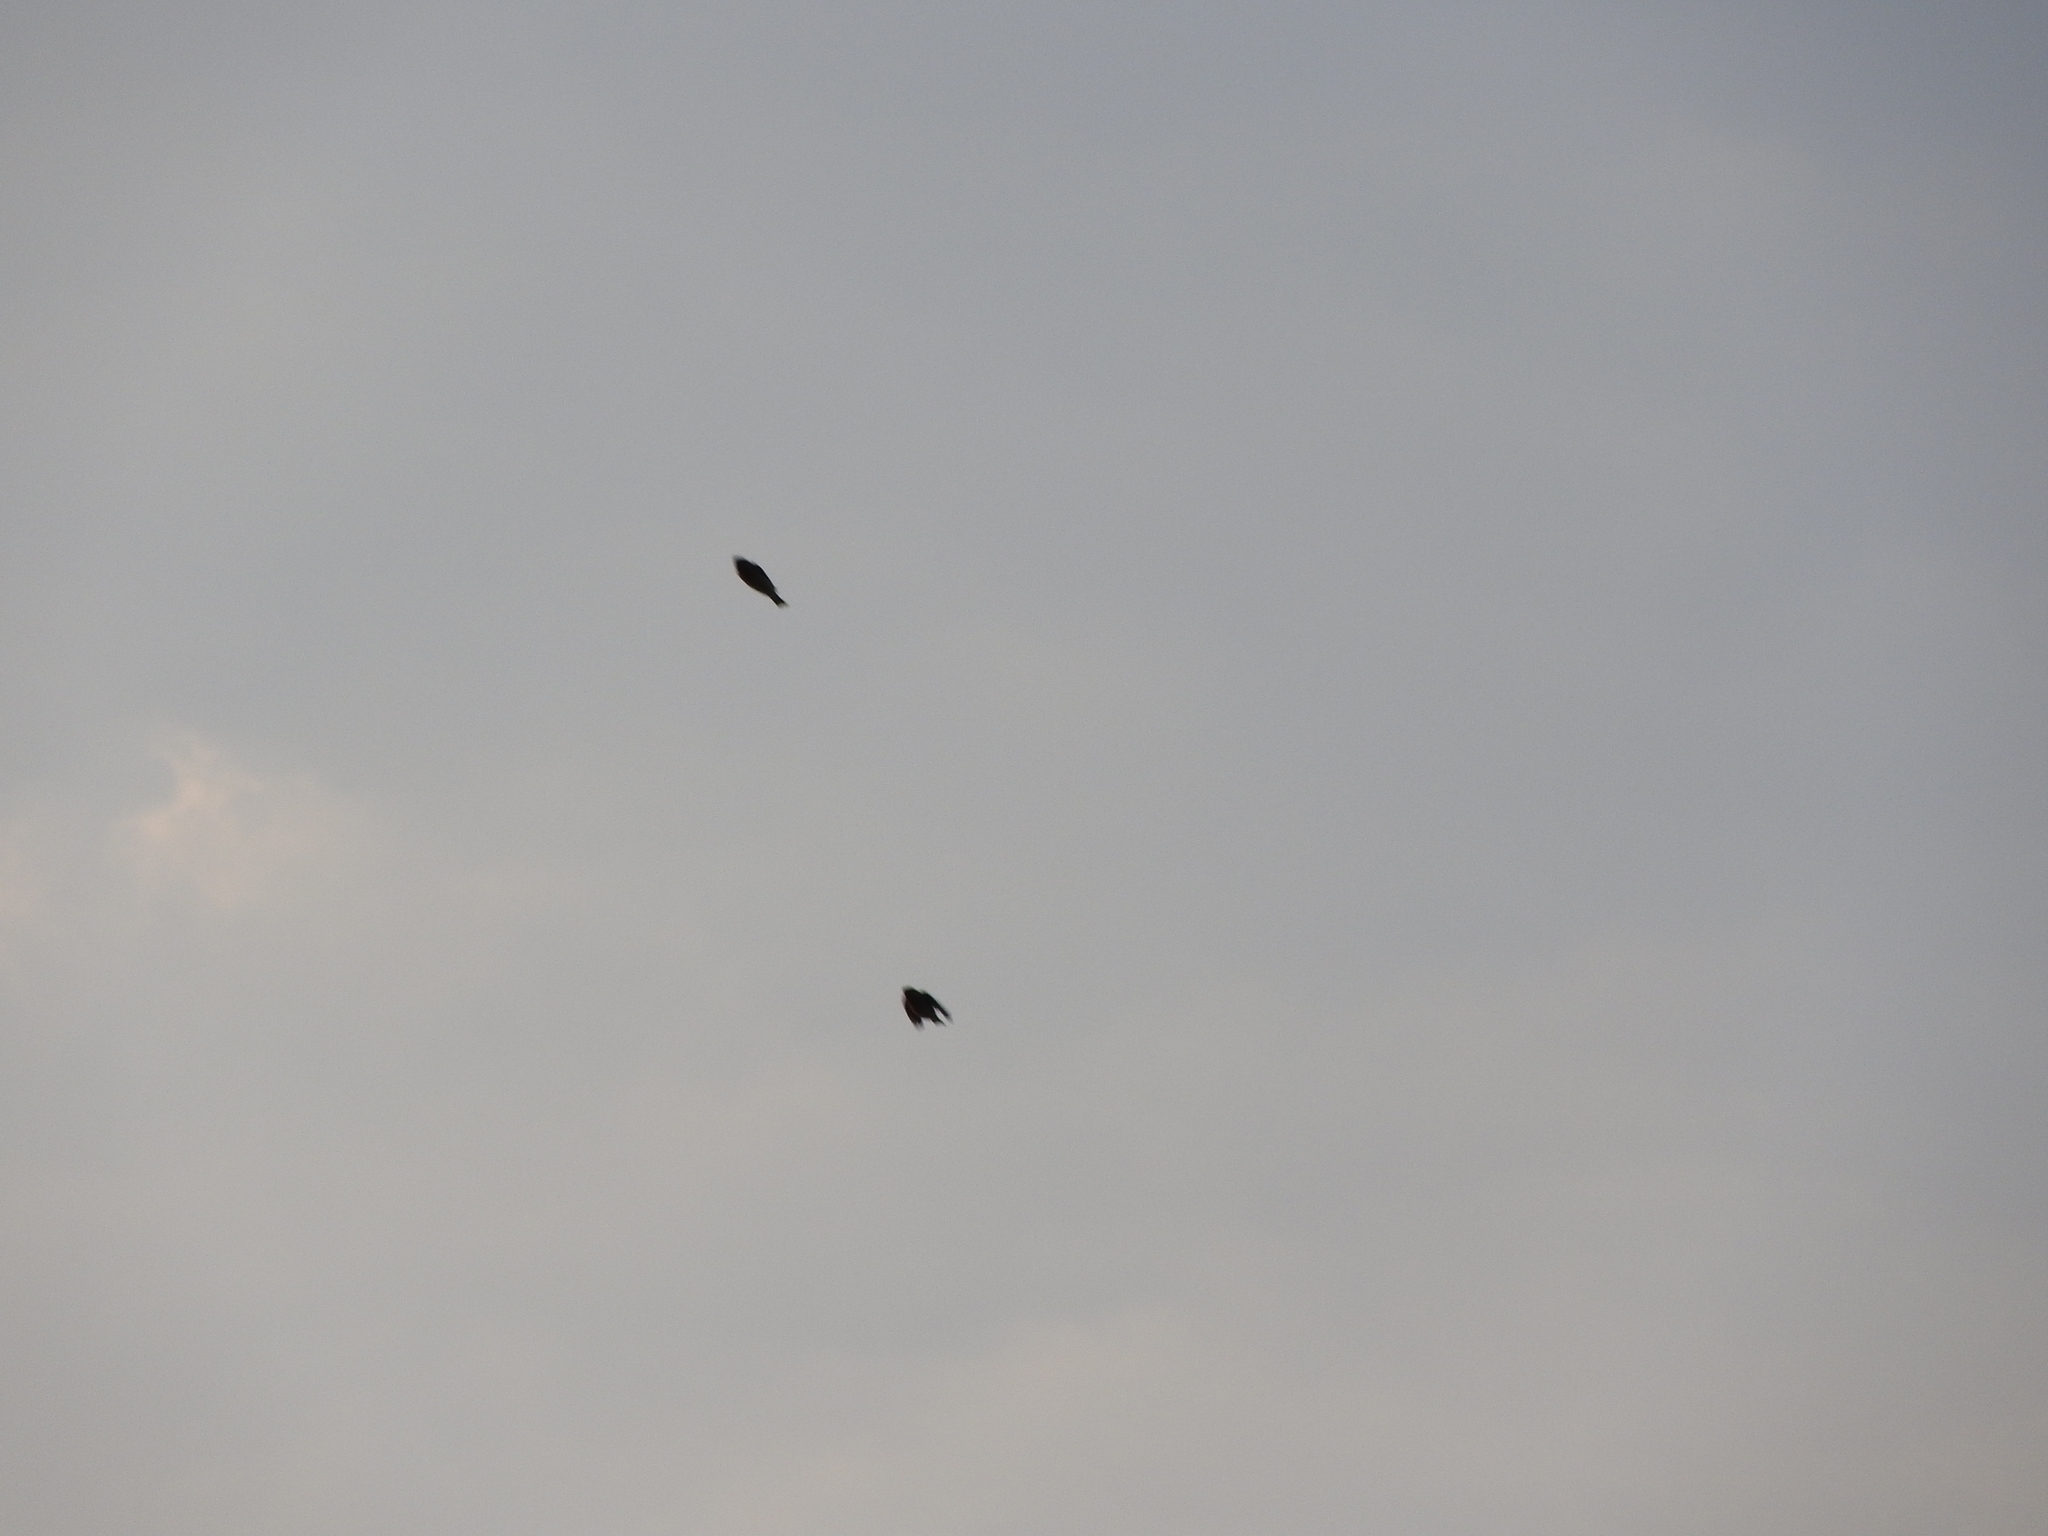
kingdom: Animalia
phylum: Chordata
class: Aves
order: Passeriformes
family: Hirundinidae
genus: Hirundo
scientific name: Hirundo rustica
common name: Barn swallow
